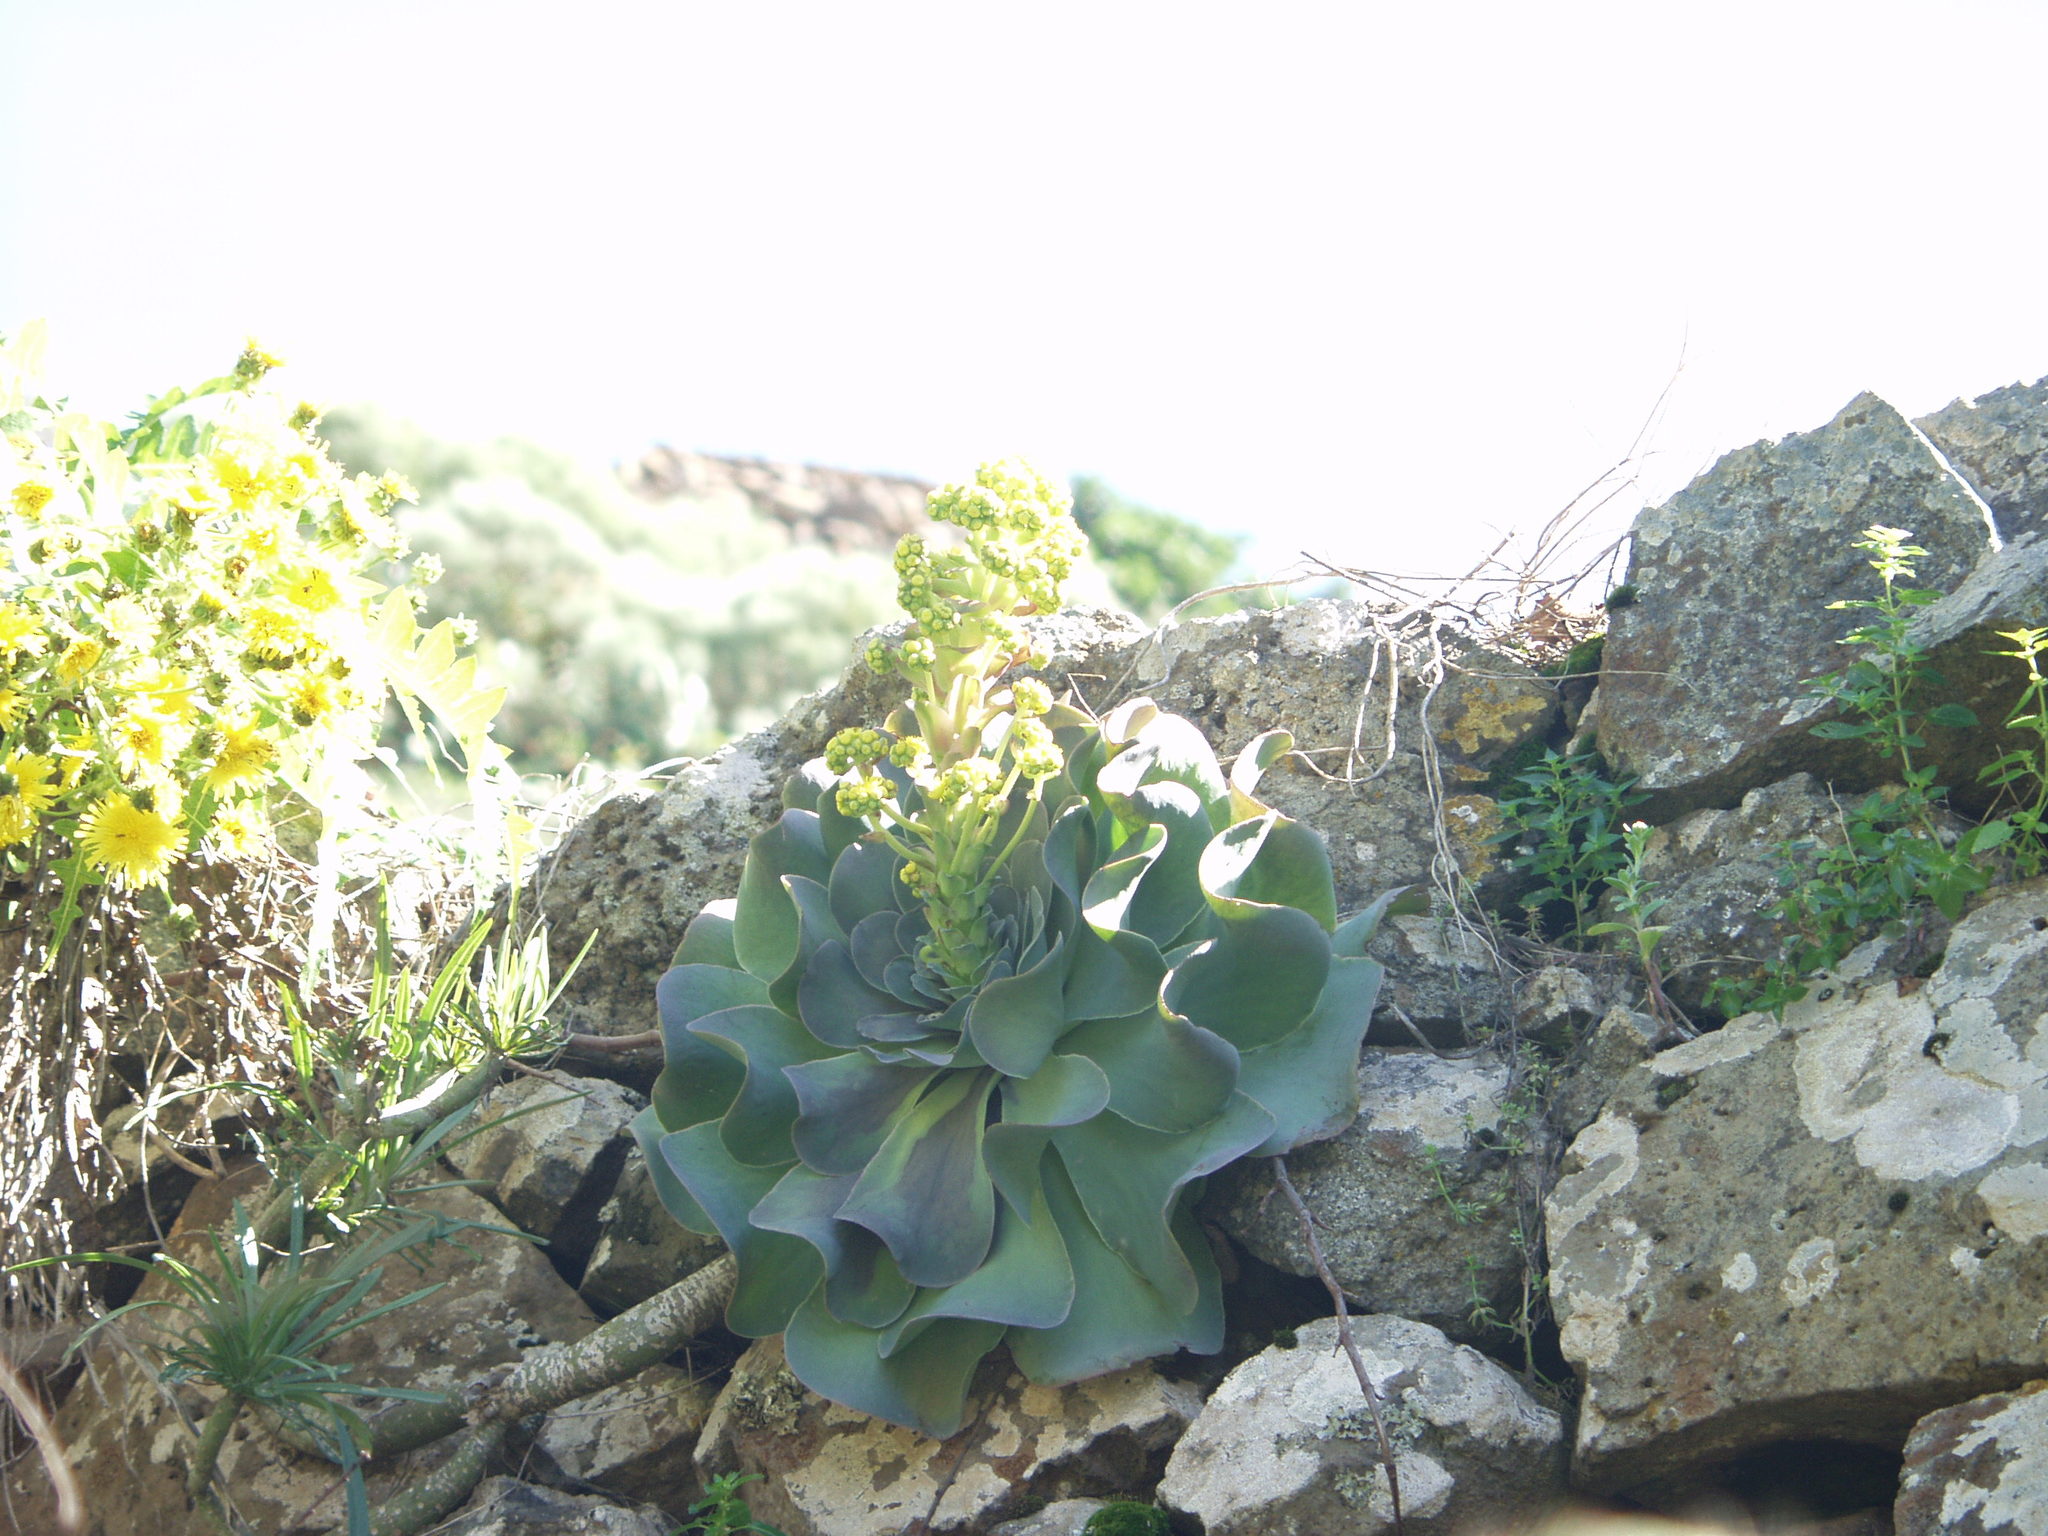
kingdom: Plantae
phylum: Tracheophyta
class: Magnoliopsida
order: Saxifragales
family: Crassulaceae
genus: Aeonium
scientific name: Aeonium diplocyclum
